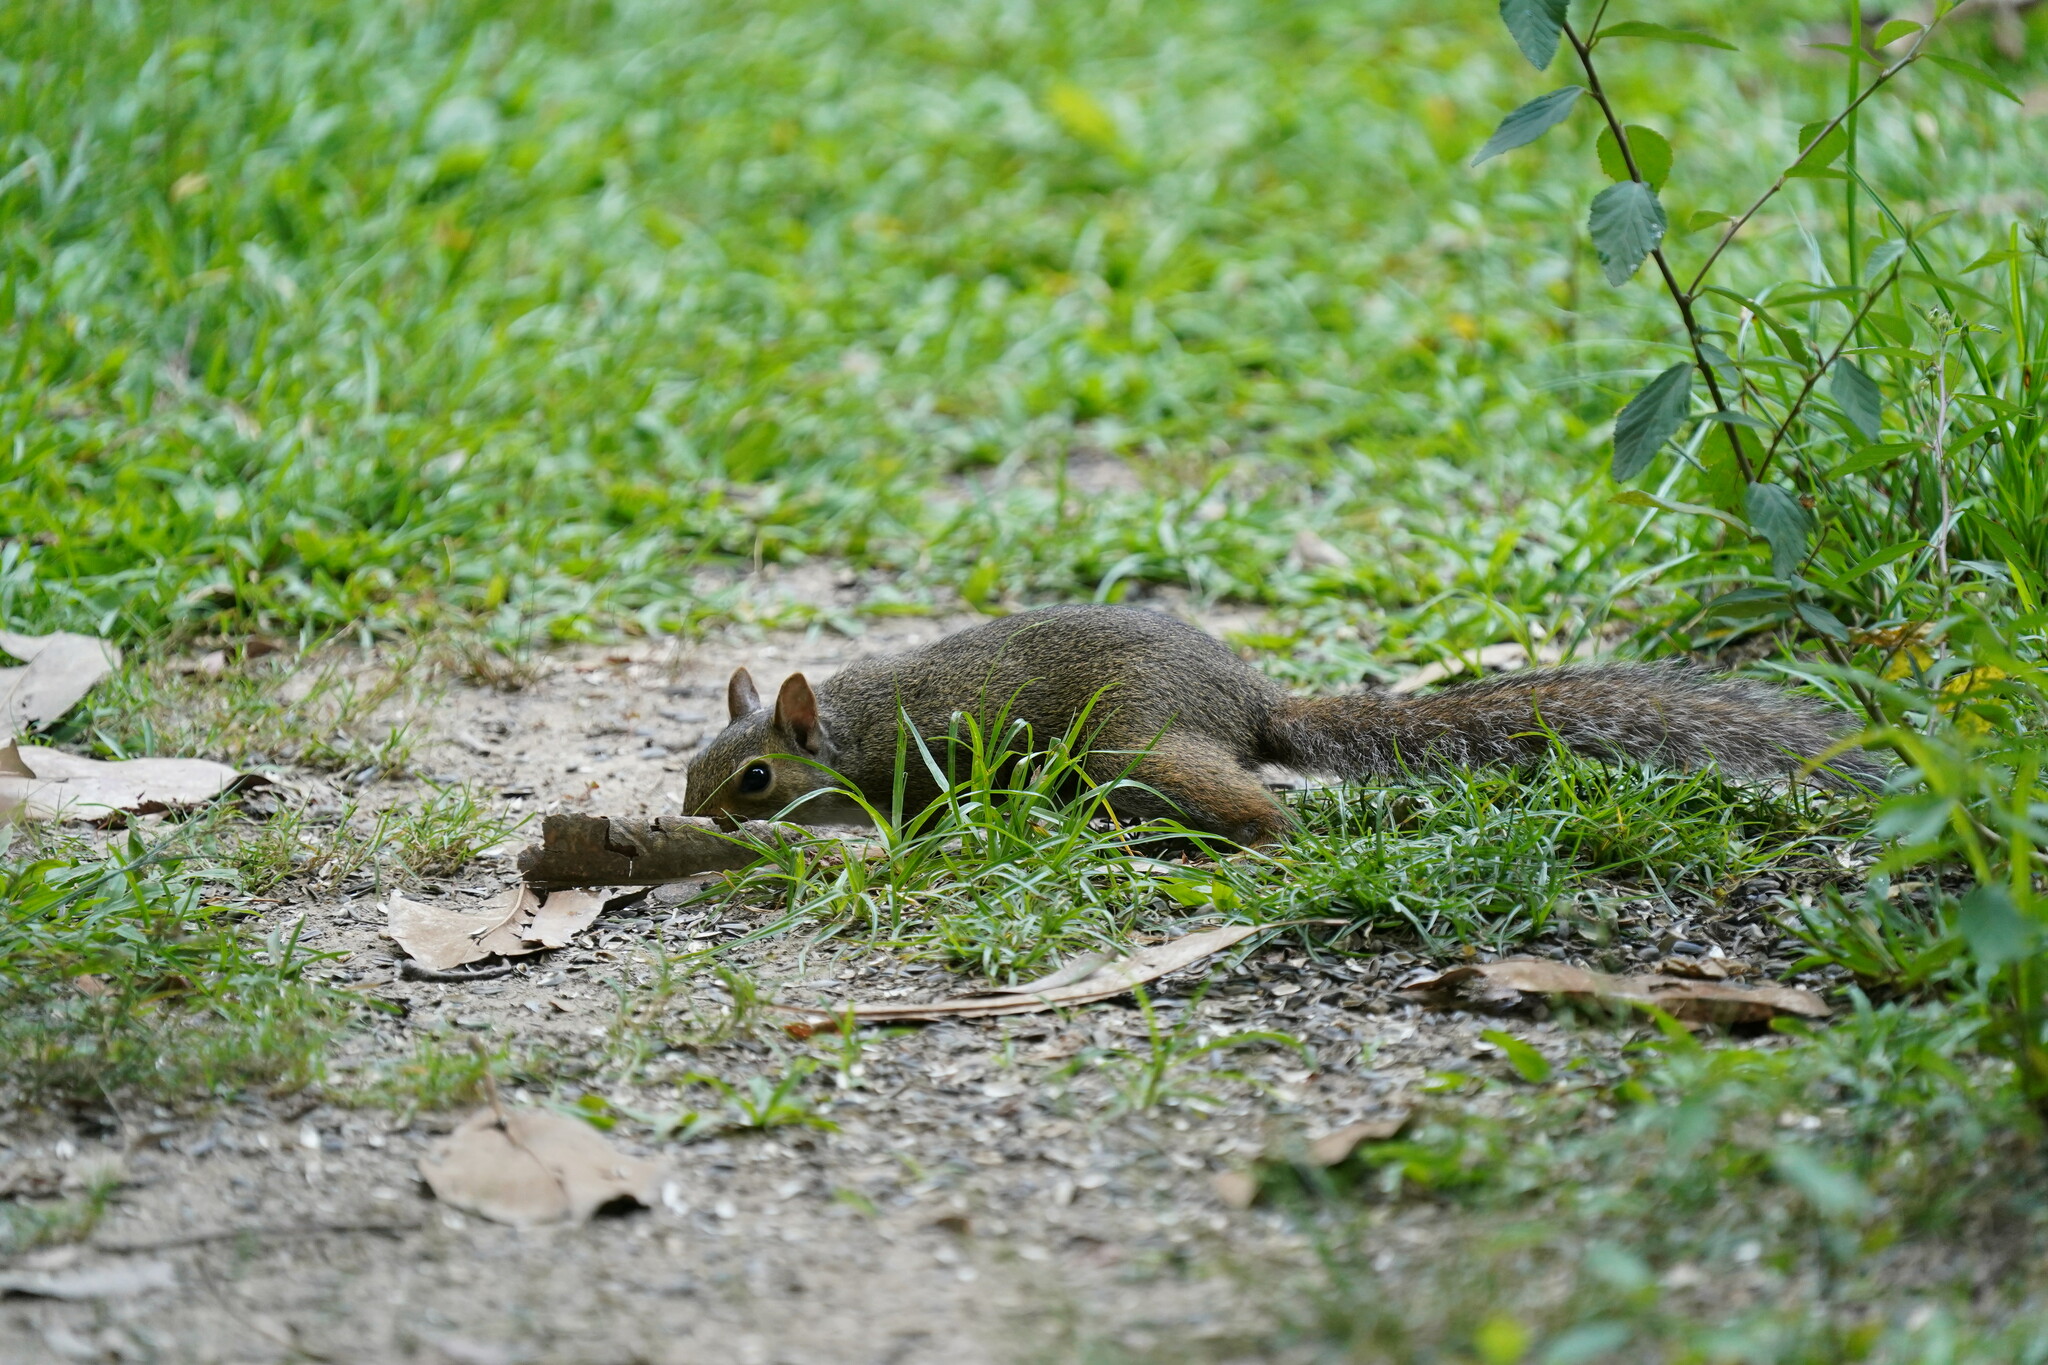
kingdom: Animalia
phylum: Chordata
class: Mammalia
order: Rodentia
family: Sciuridae
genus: Sciurus
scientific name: Sciurus carolinensis
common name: Eastern gray squirrel
